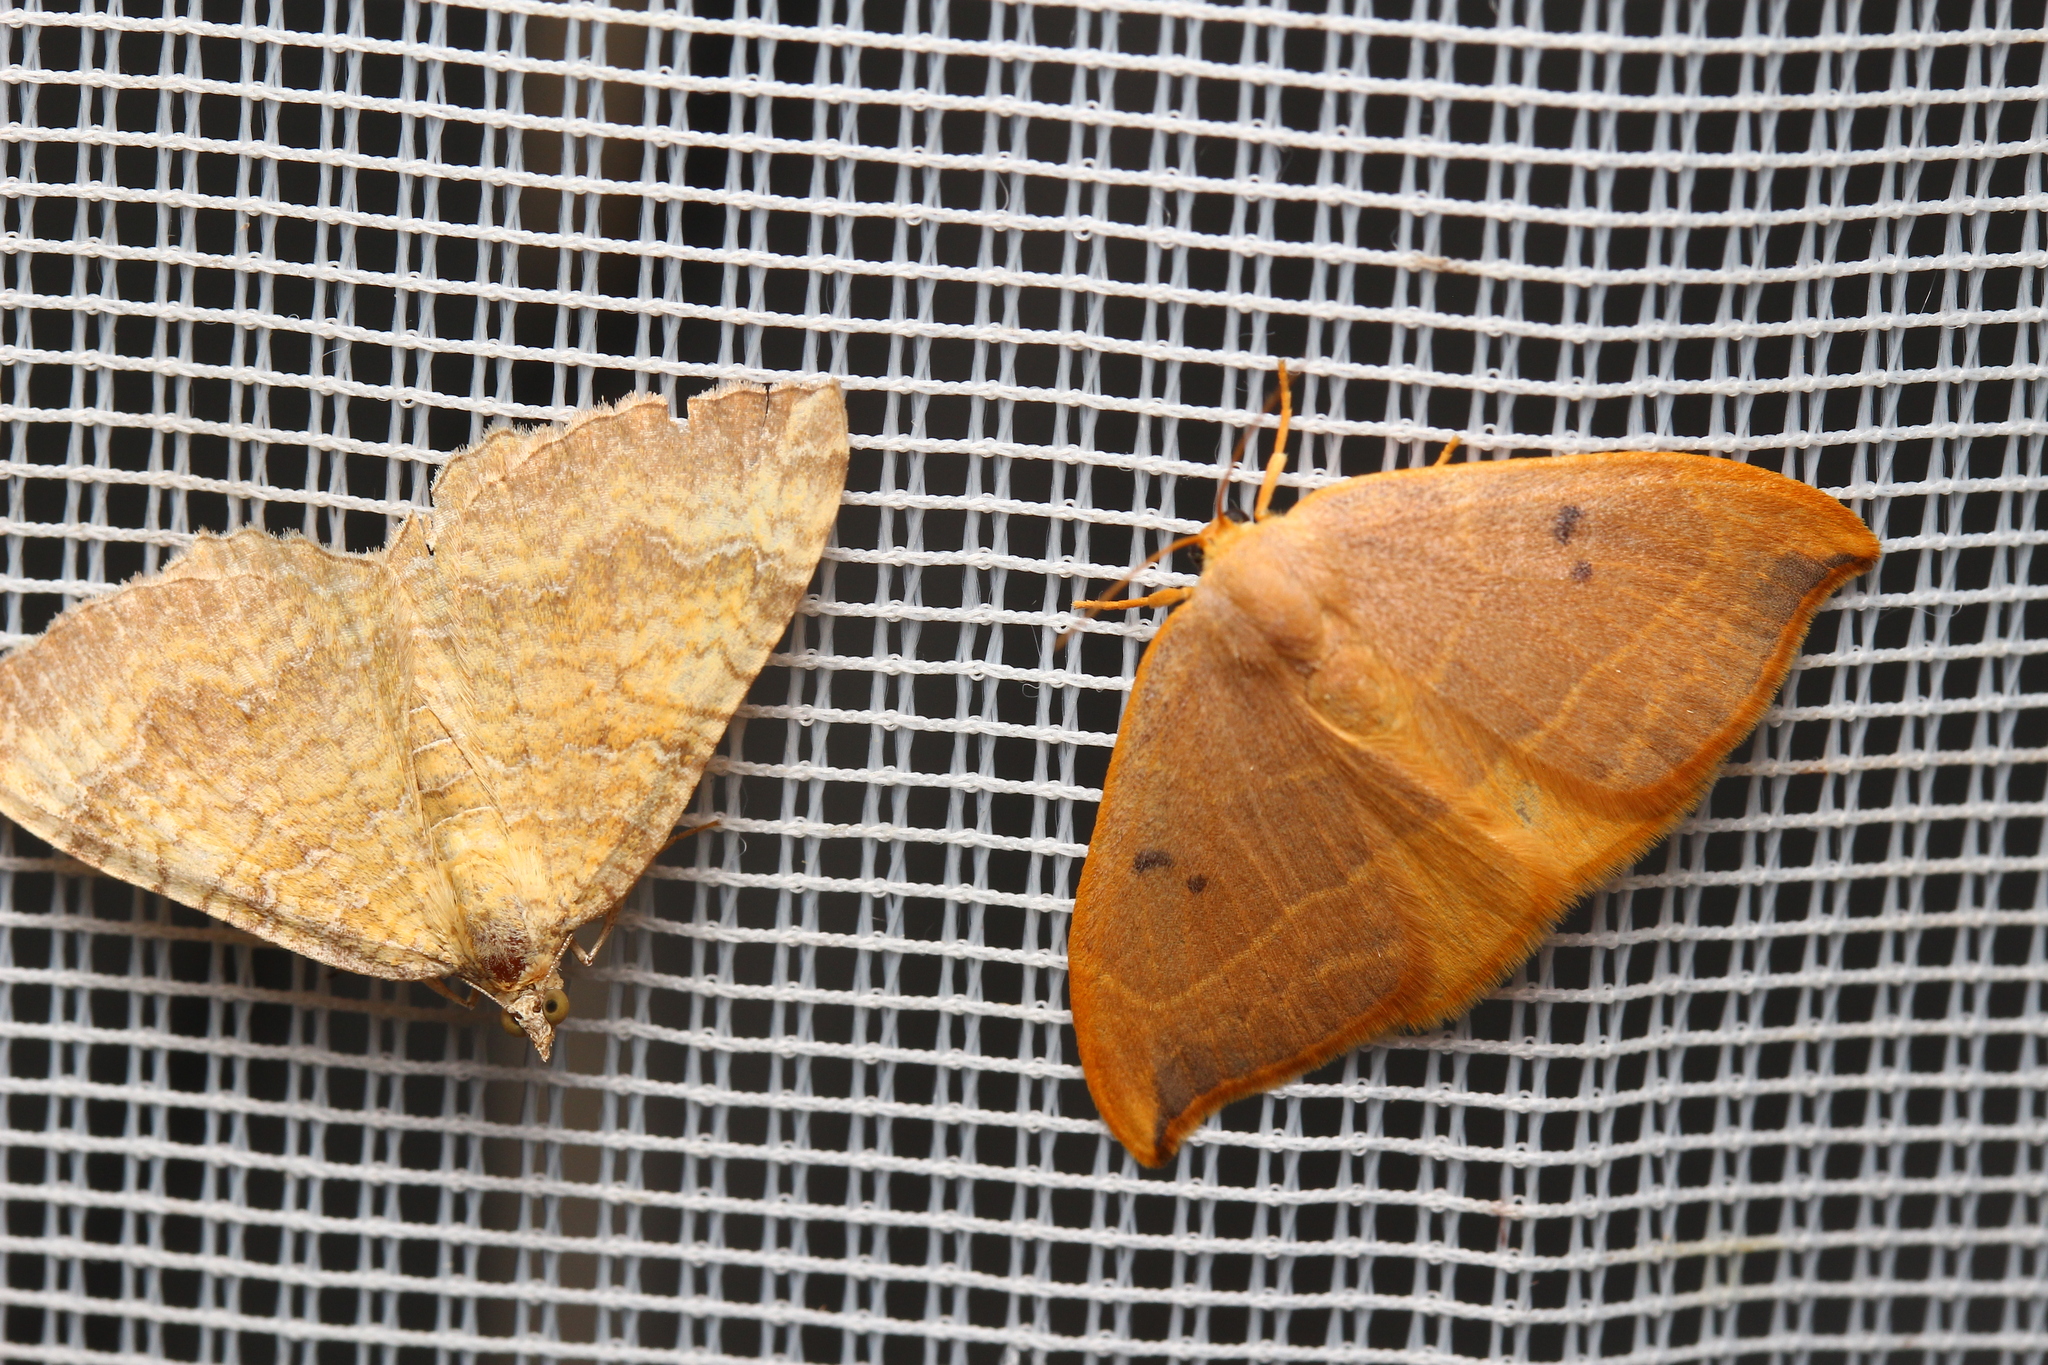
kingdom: Animalia
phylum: Arthropoda
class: Insecta
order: Lepidoptera
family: Drepanidae
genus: Watsonalla
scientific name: Watsonalla binaria
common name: Oak hook-tip
